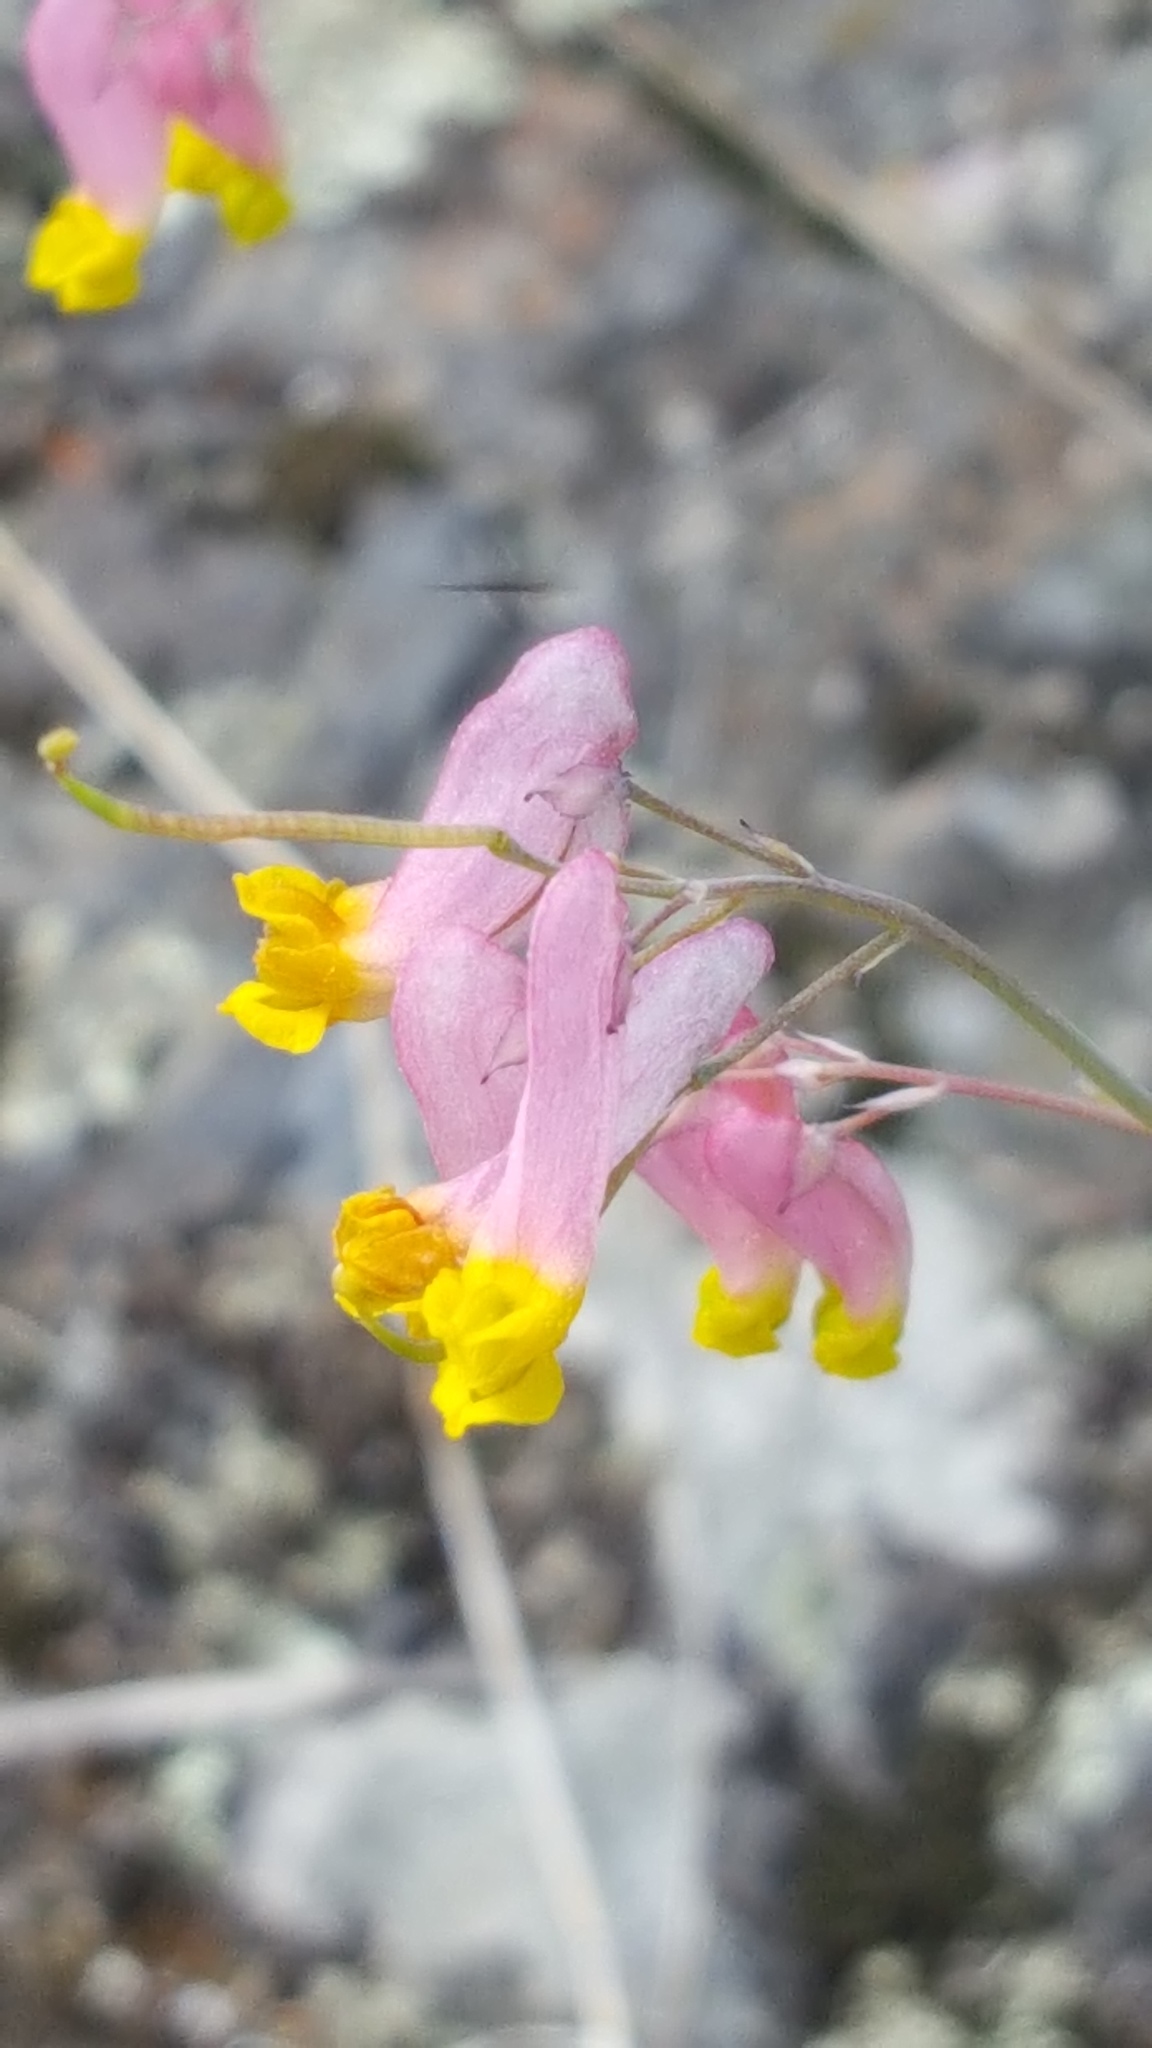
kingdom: Plantae
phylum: Tracheophyta
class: Magnoliopsida
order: Ranunculales
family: Papaveraceae
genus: Capnoides
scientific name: Capnoides sempervirens
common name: Rock harlequin
